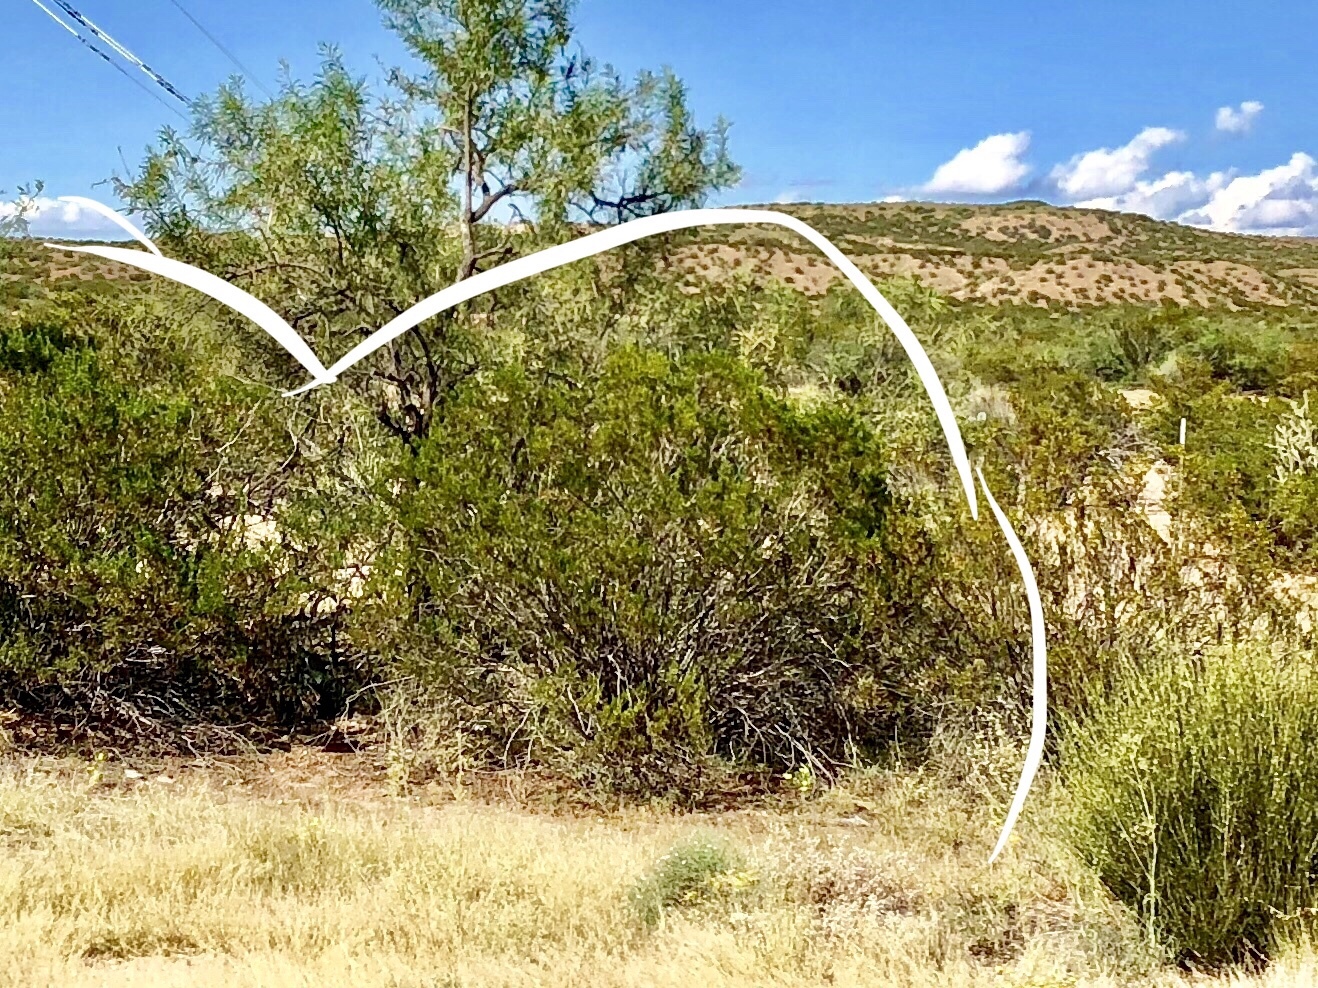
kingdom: Plantae
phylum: Tracheophyta
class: Magnoliopsida
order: Zygophyllales
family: Zygophyllaceae
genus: Larrea
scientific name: Larrea tridentata
